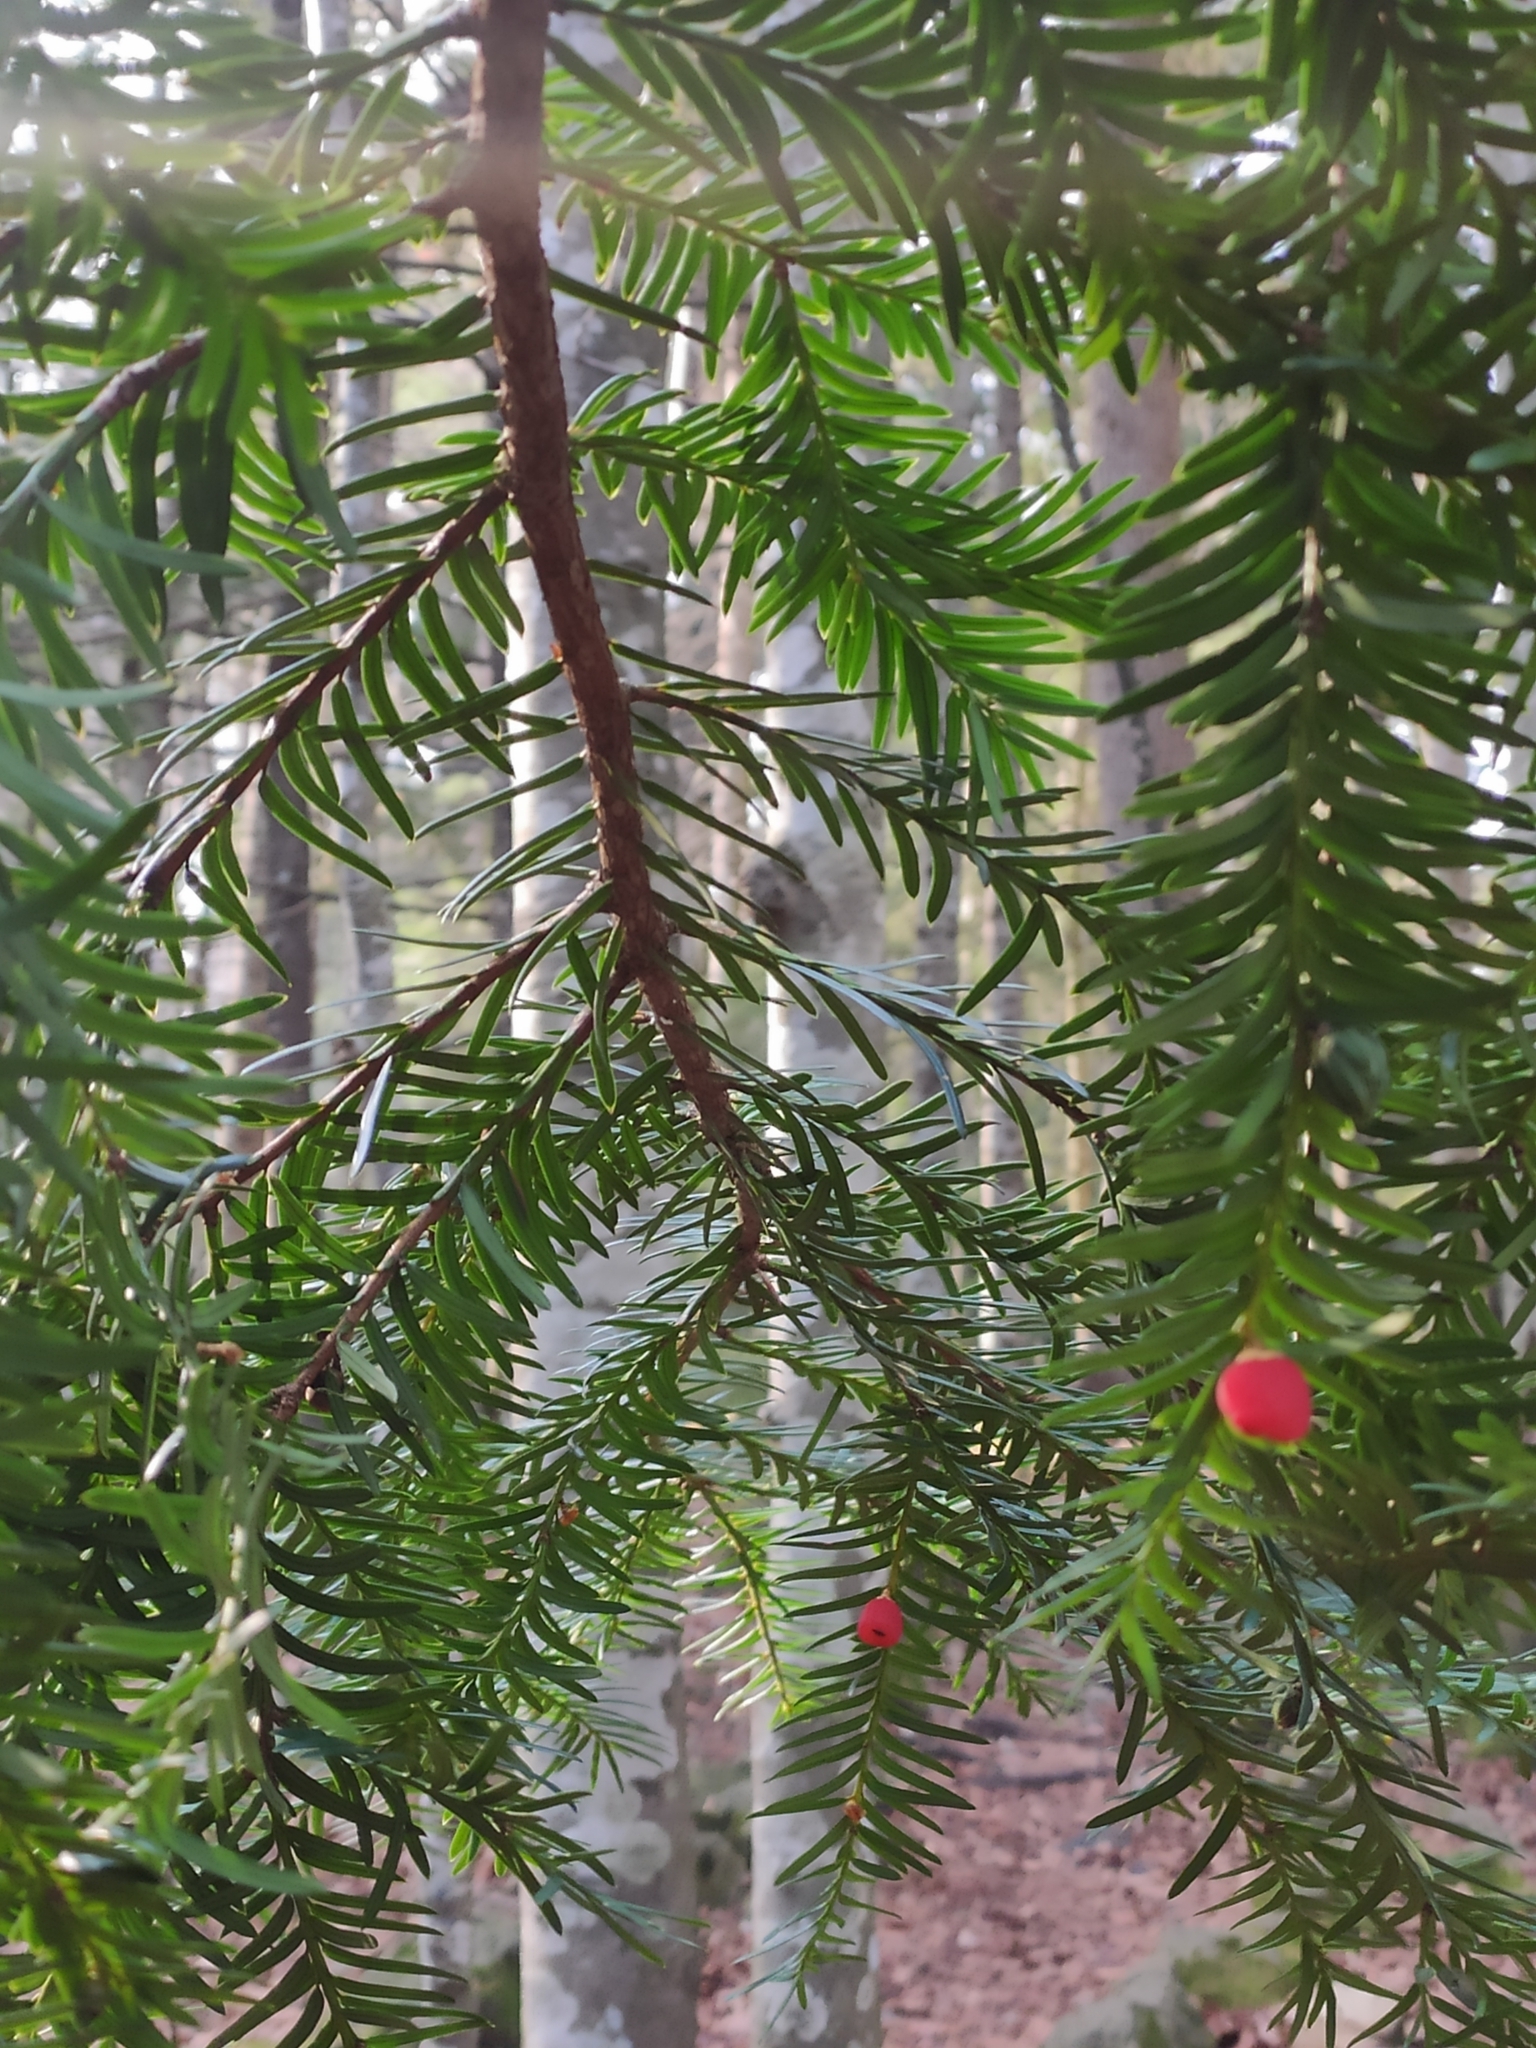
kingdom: Plantae
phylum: Tracheophyta
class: Pinopsida
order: Pinales
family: Taxaceae
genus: Taxus
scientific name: Taxus baccata
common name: Yew
